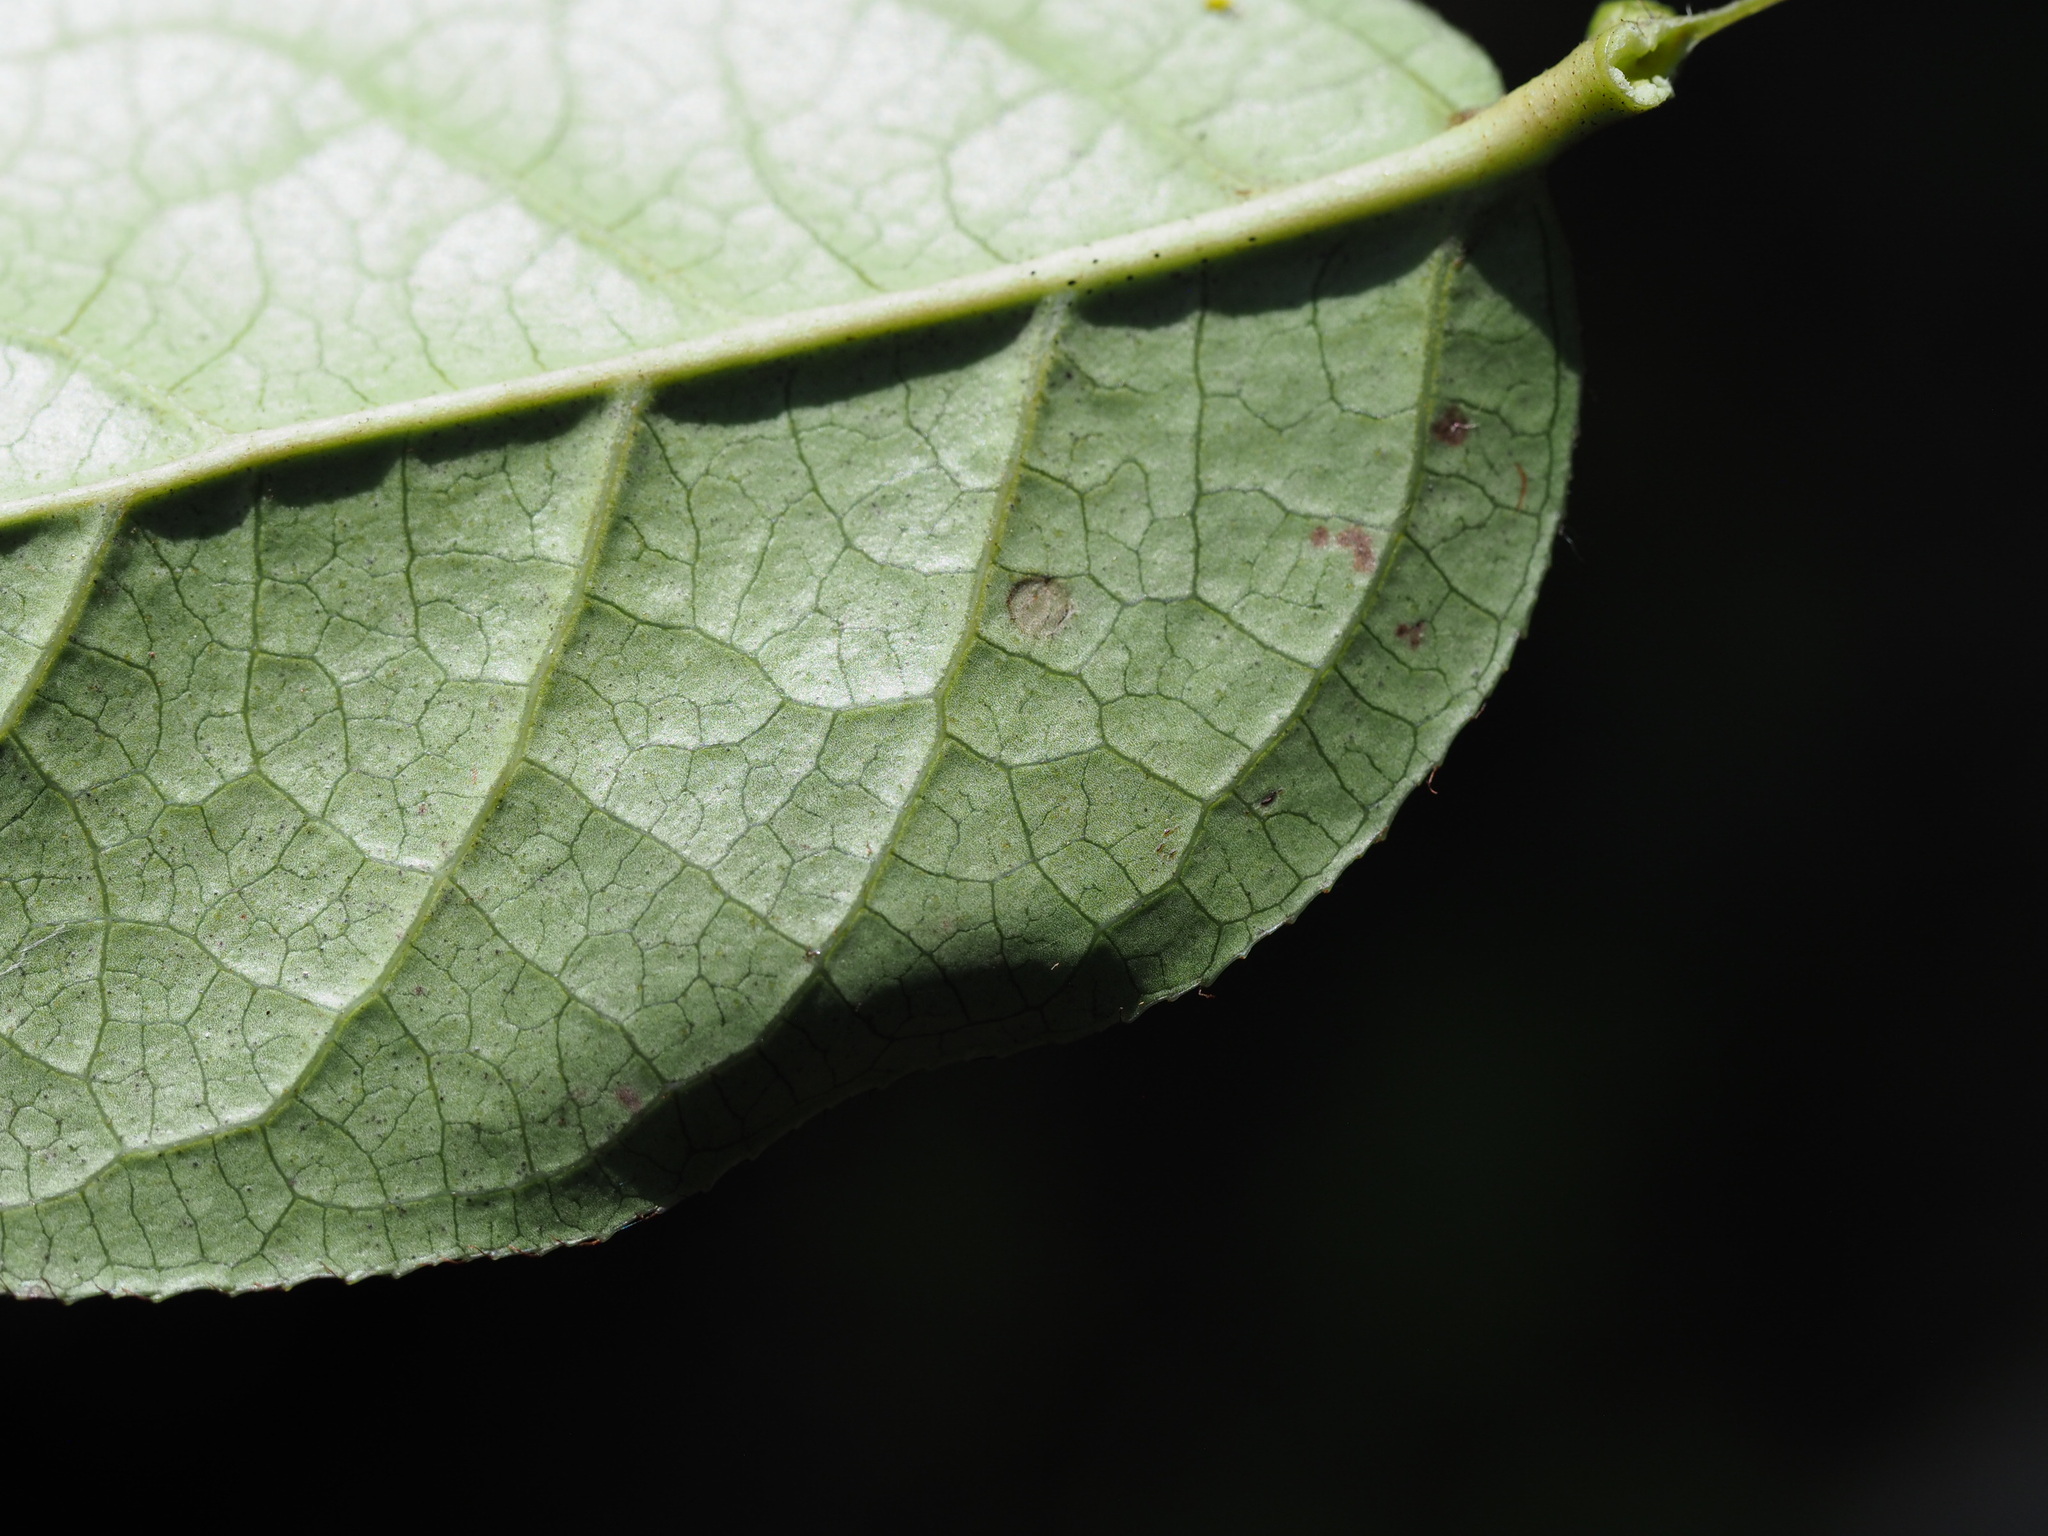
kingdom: Animalia
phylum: Arthropoda
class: Insecta
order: Lepidoptera
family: Gracillariidae
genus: Cameraria
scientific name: Cameraria gaultheriella
